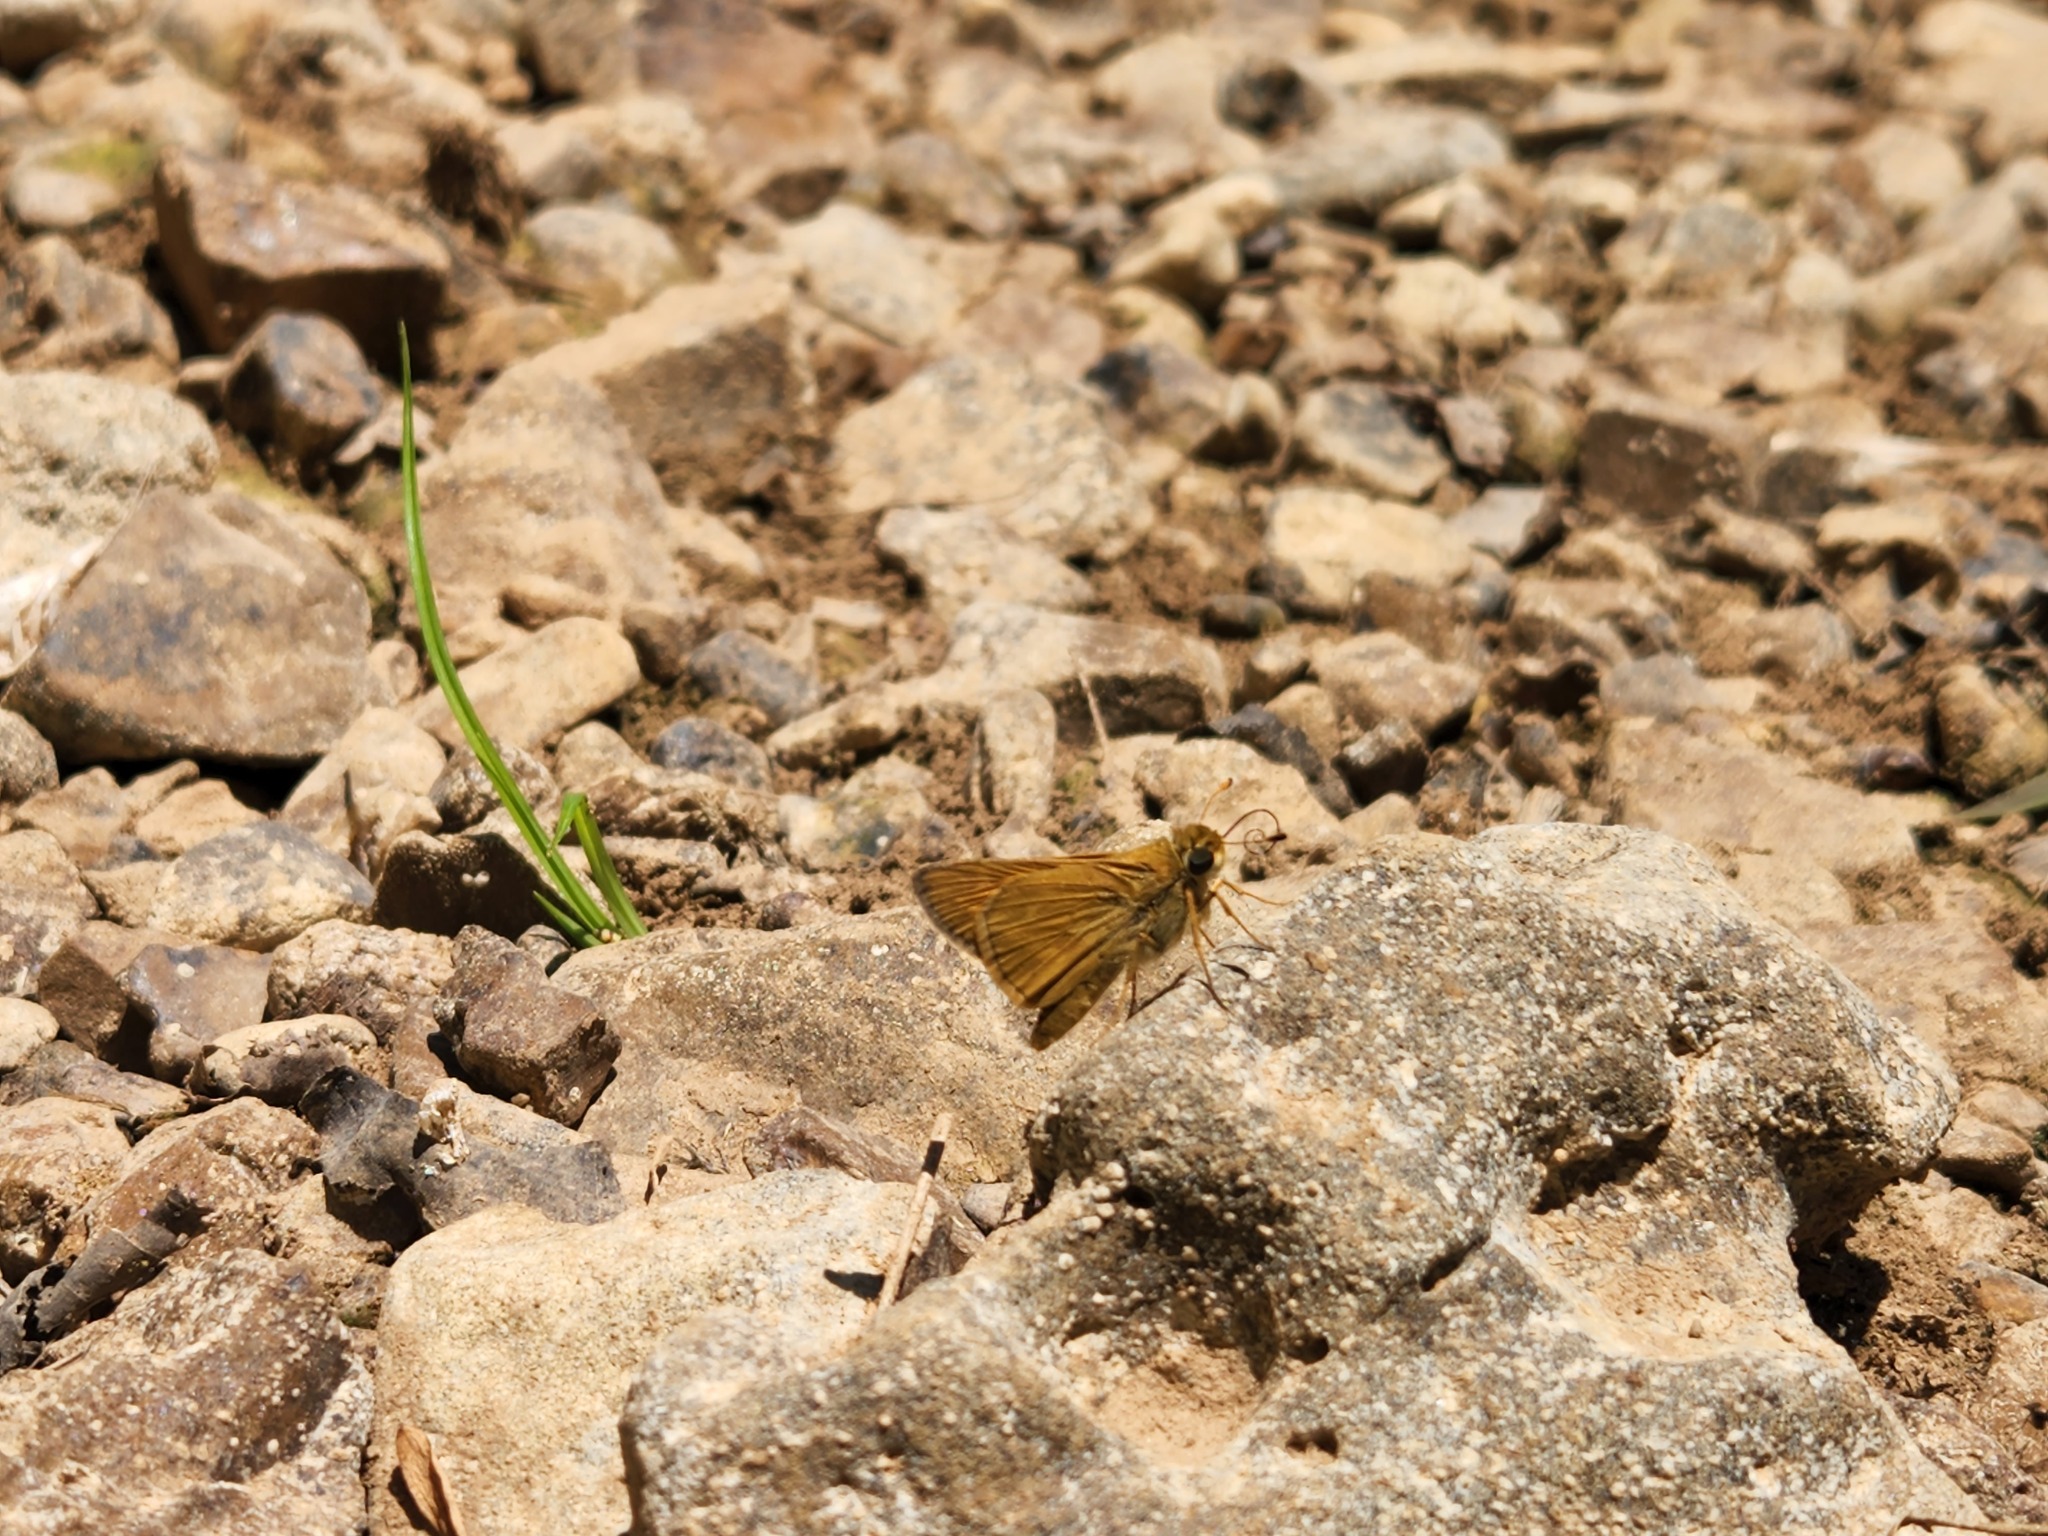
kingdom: Animalia
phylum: Arthropoda
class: Insecta
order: Lepidoptera
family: Hesperiidae
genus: Atalopedes
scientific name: Atalopedes
